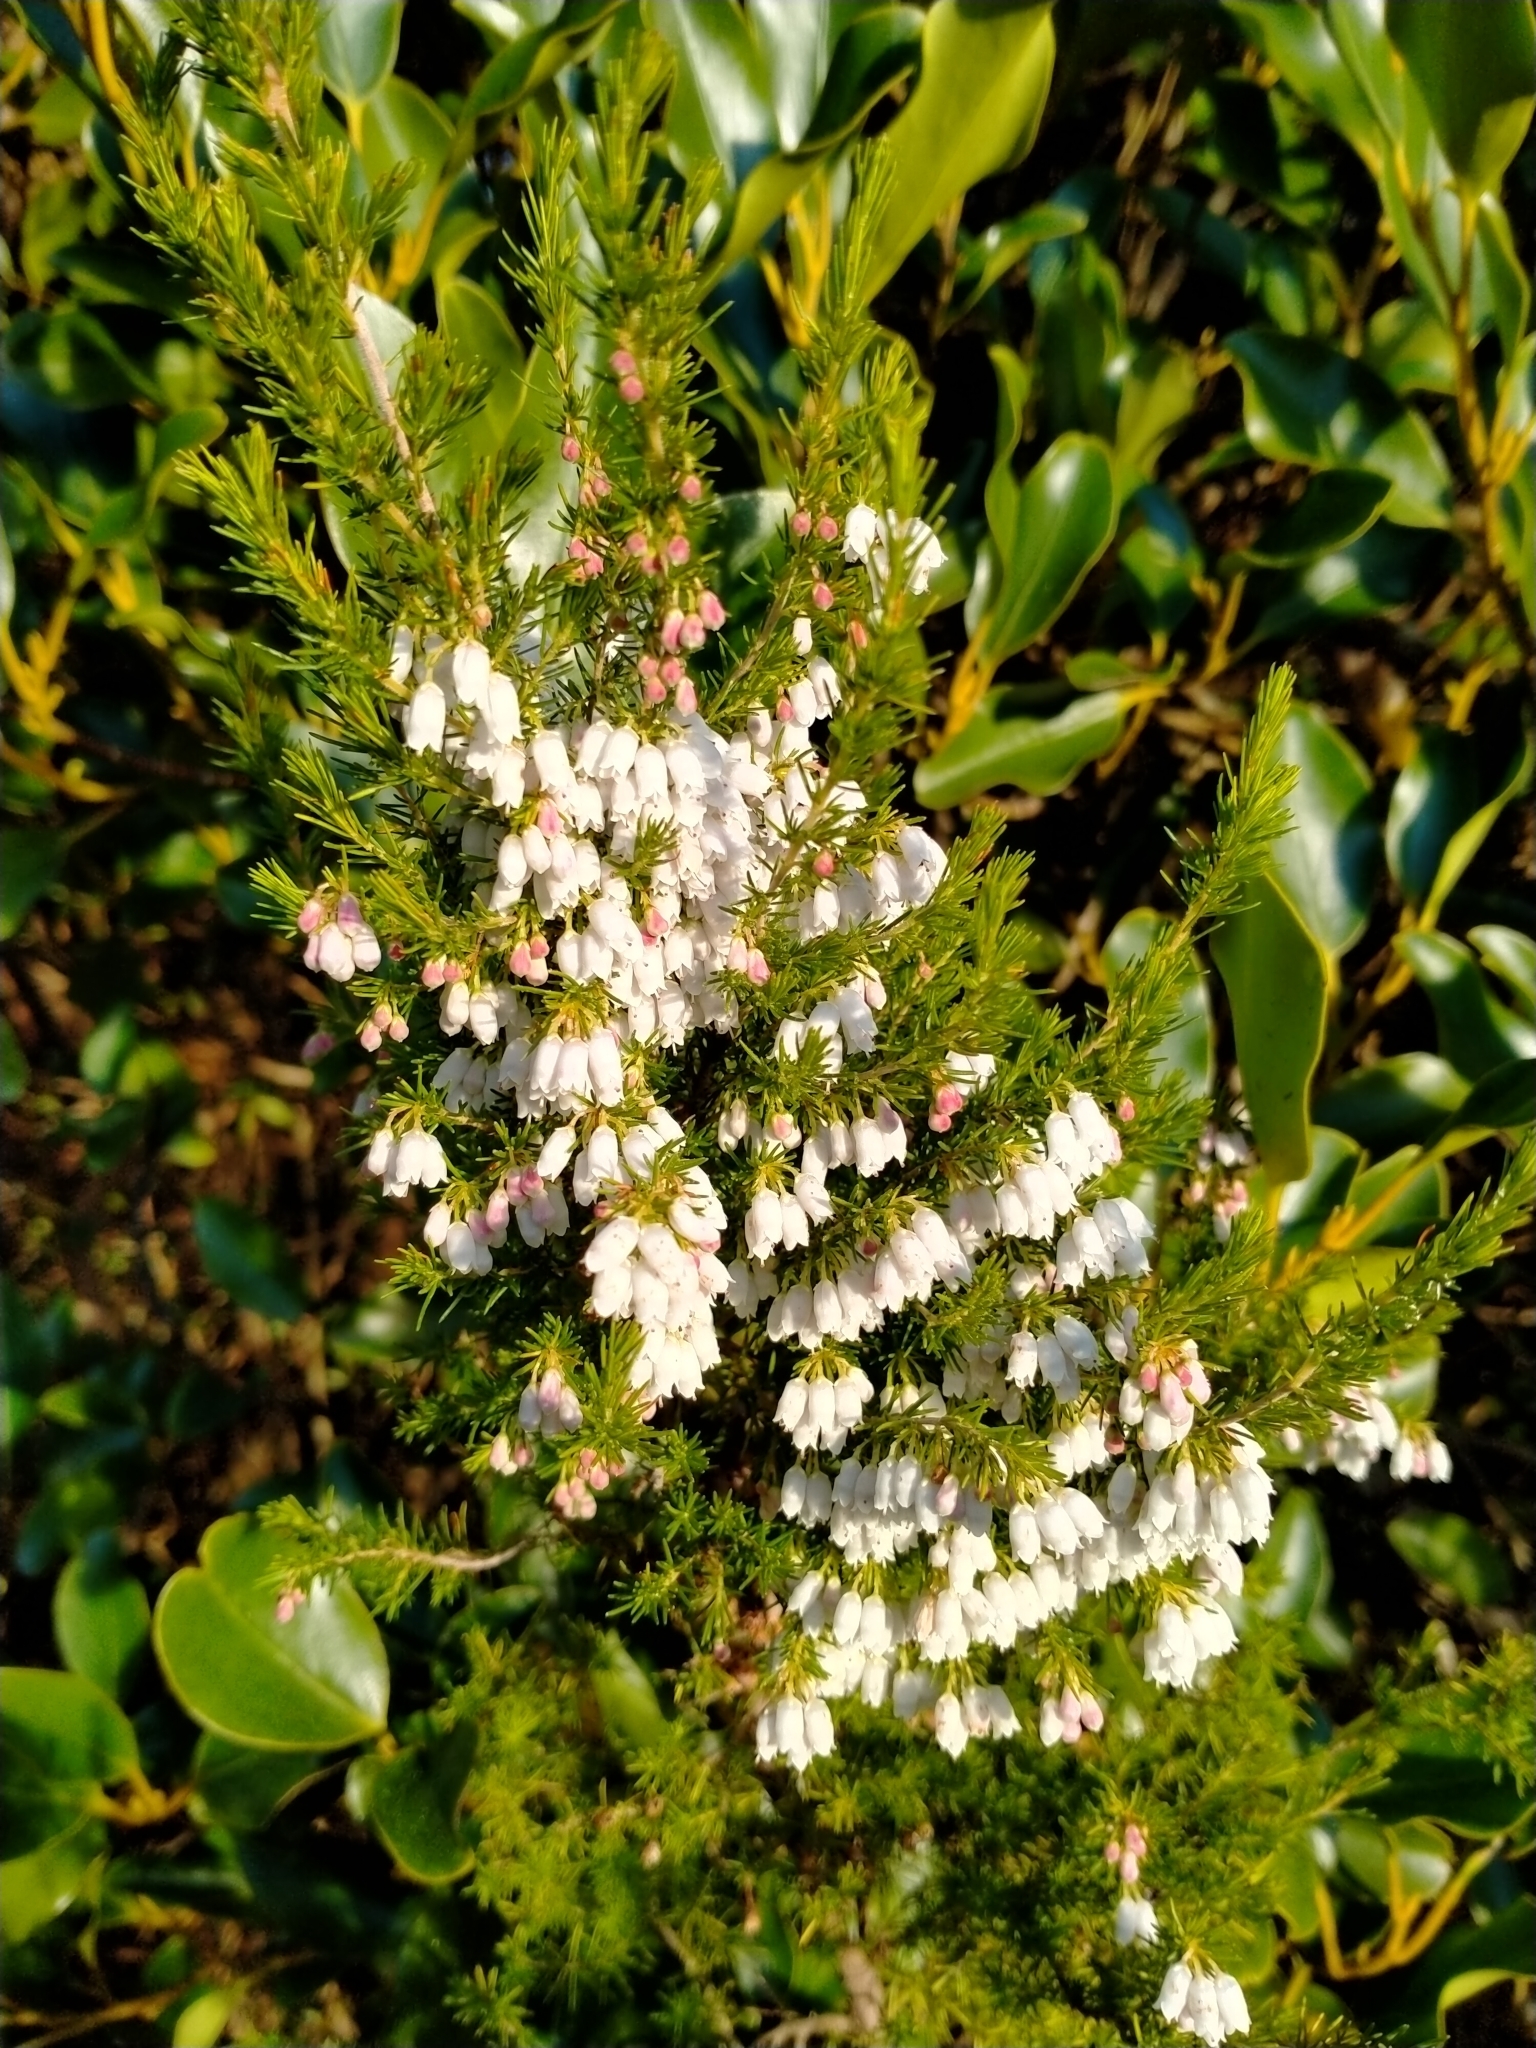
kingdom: Plantae
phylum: Tracheophyta
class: Magnoliopsida
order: Ericales
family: Ericaceae
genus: Erica
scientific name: Erica lusitanica
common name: Spanish heath
